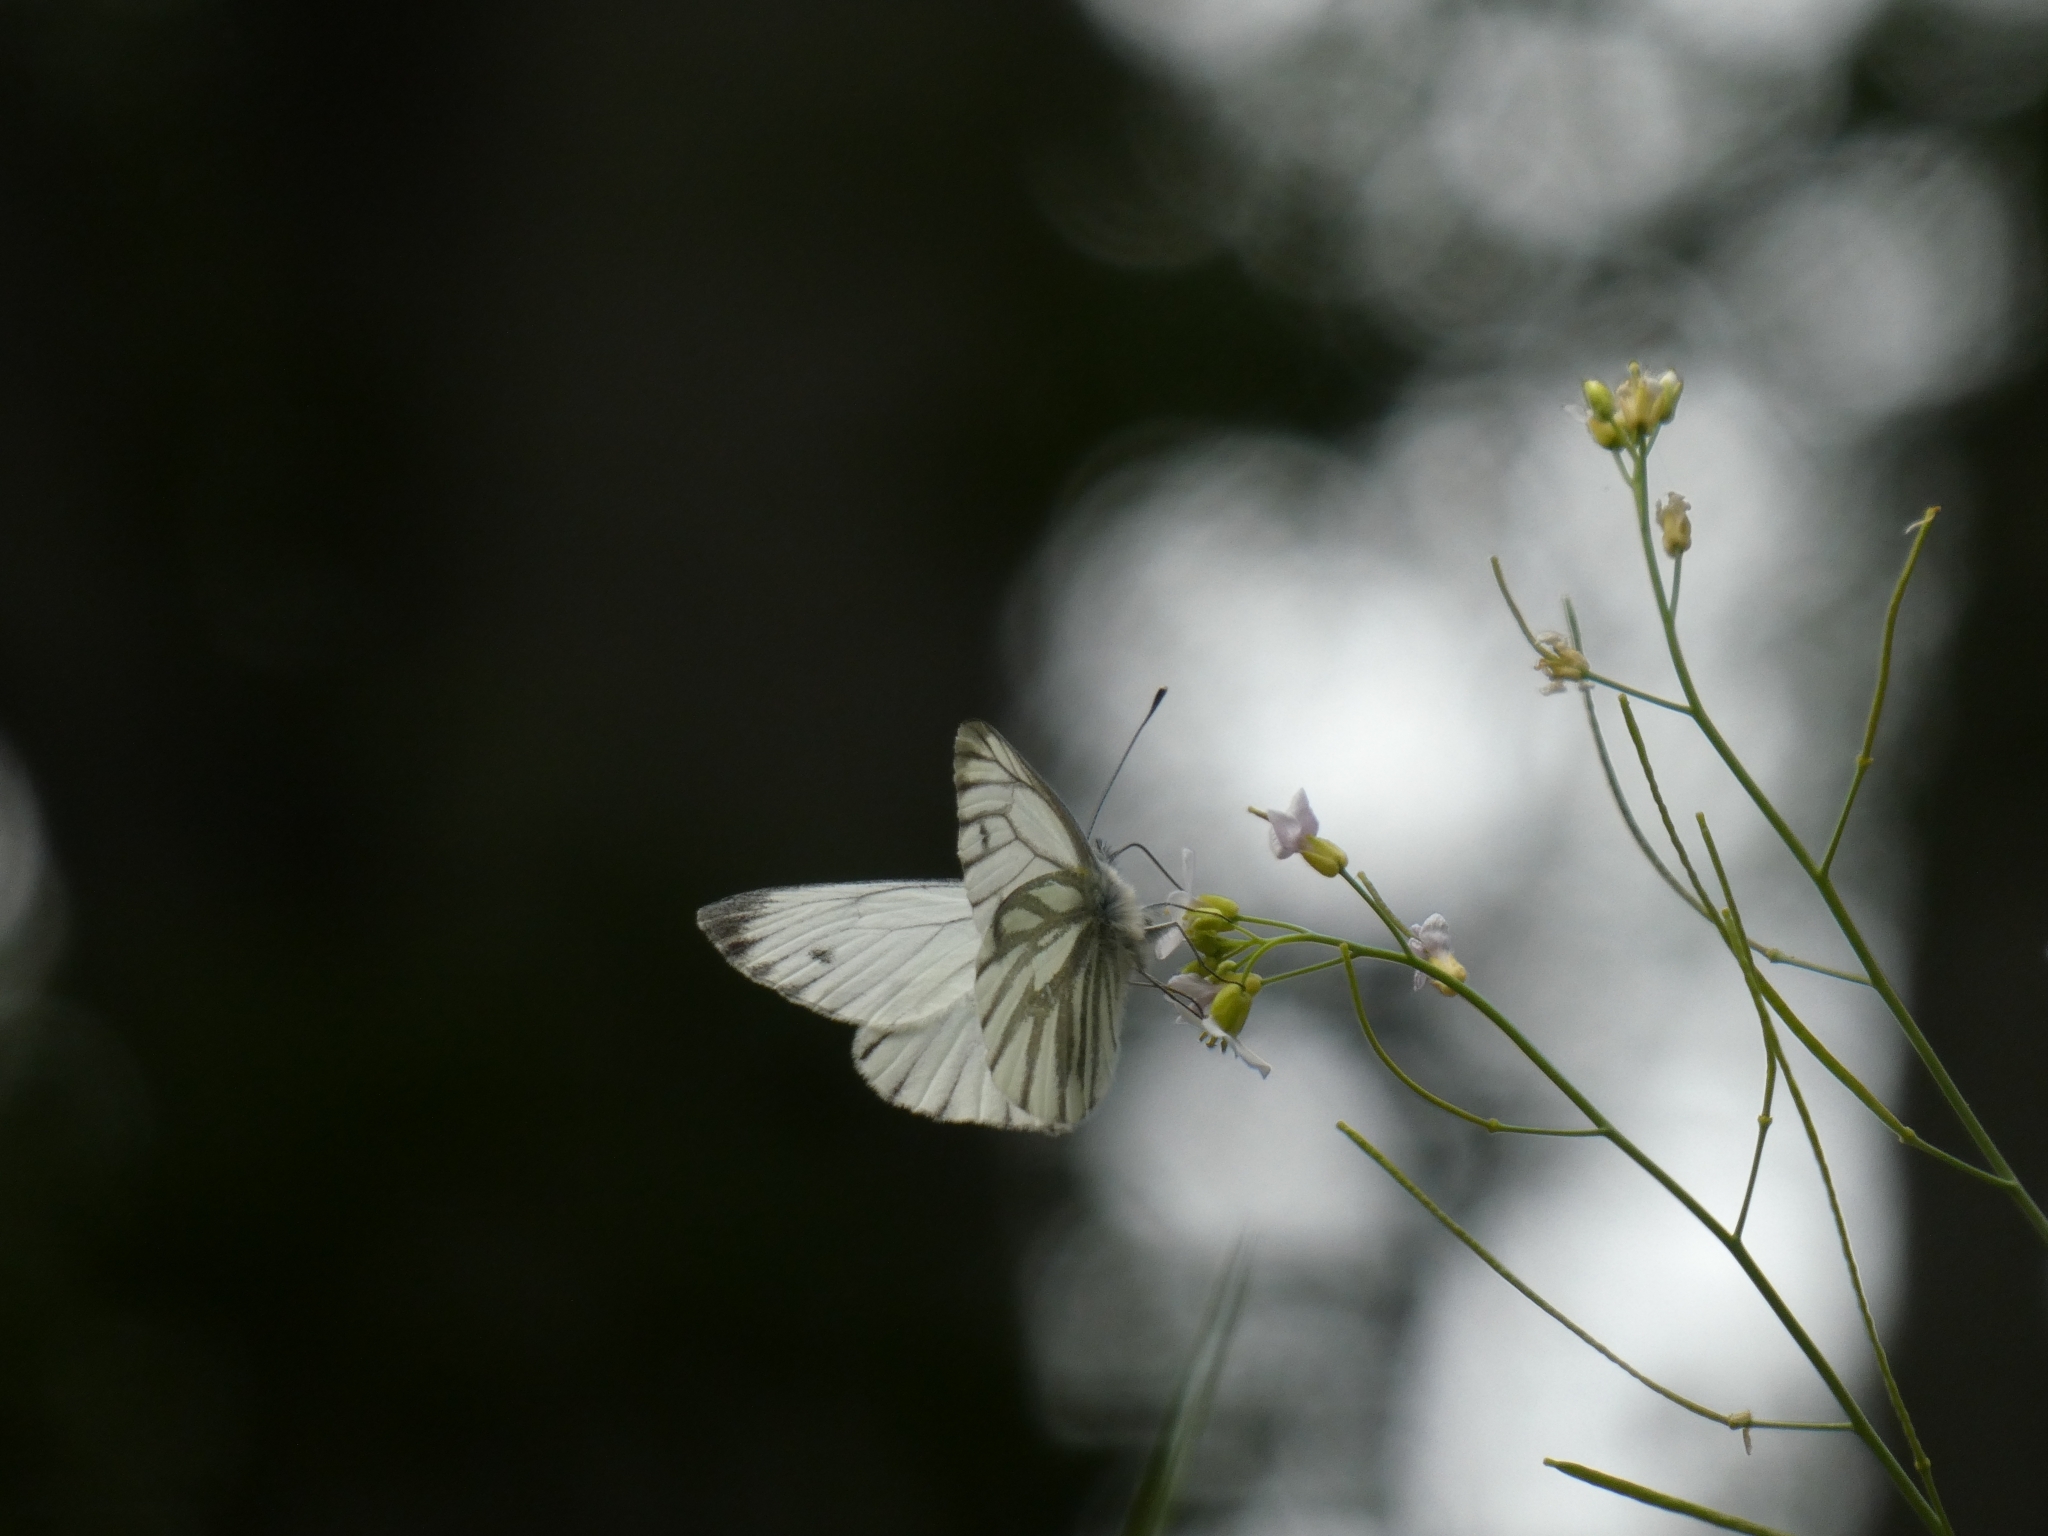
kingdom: Animalia
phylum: Arthropoda
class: Insecta
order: Lepidoptera
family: Pieridae
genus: Pieris
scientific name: Pieris napi
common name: Green-veined white
